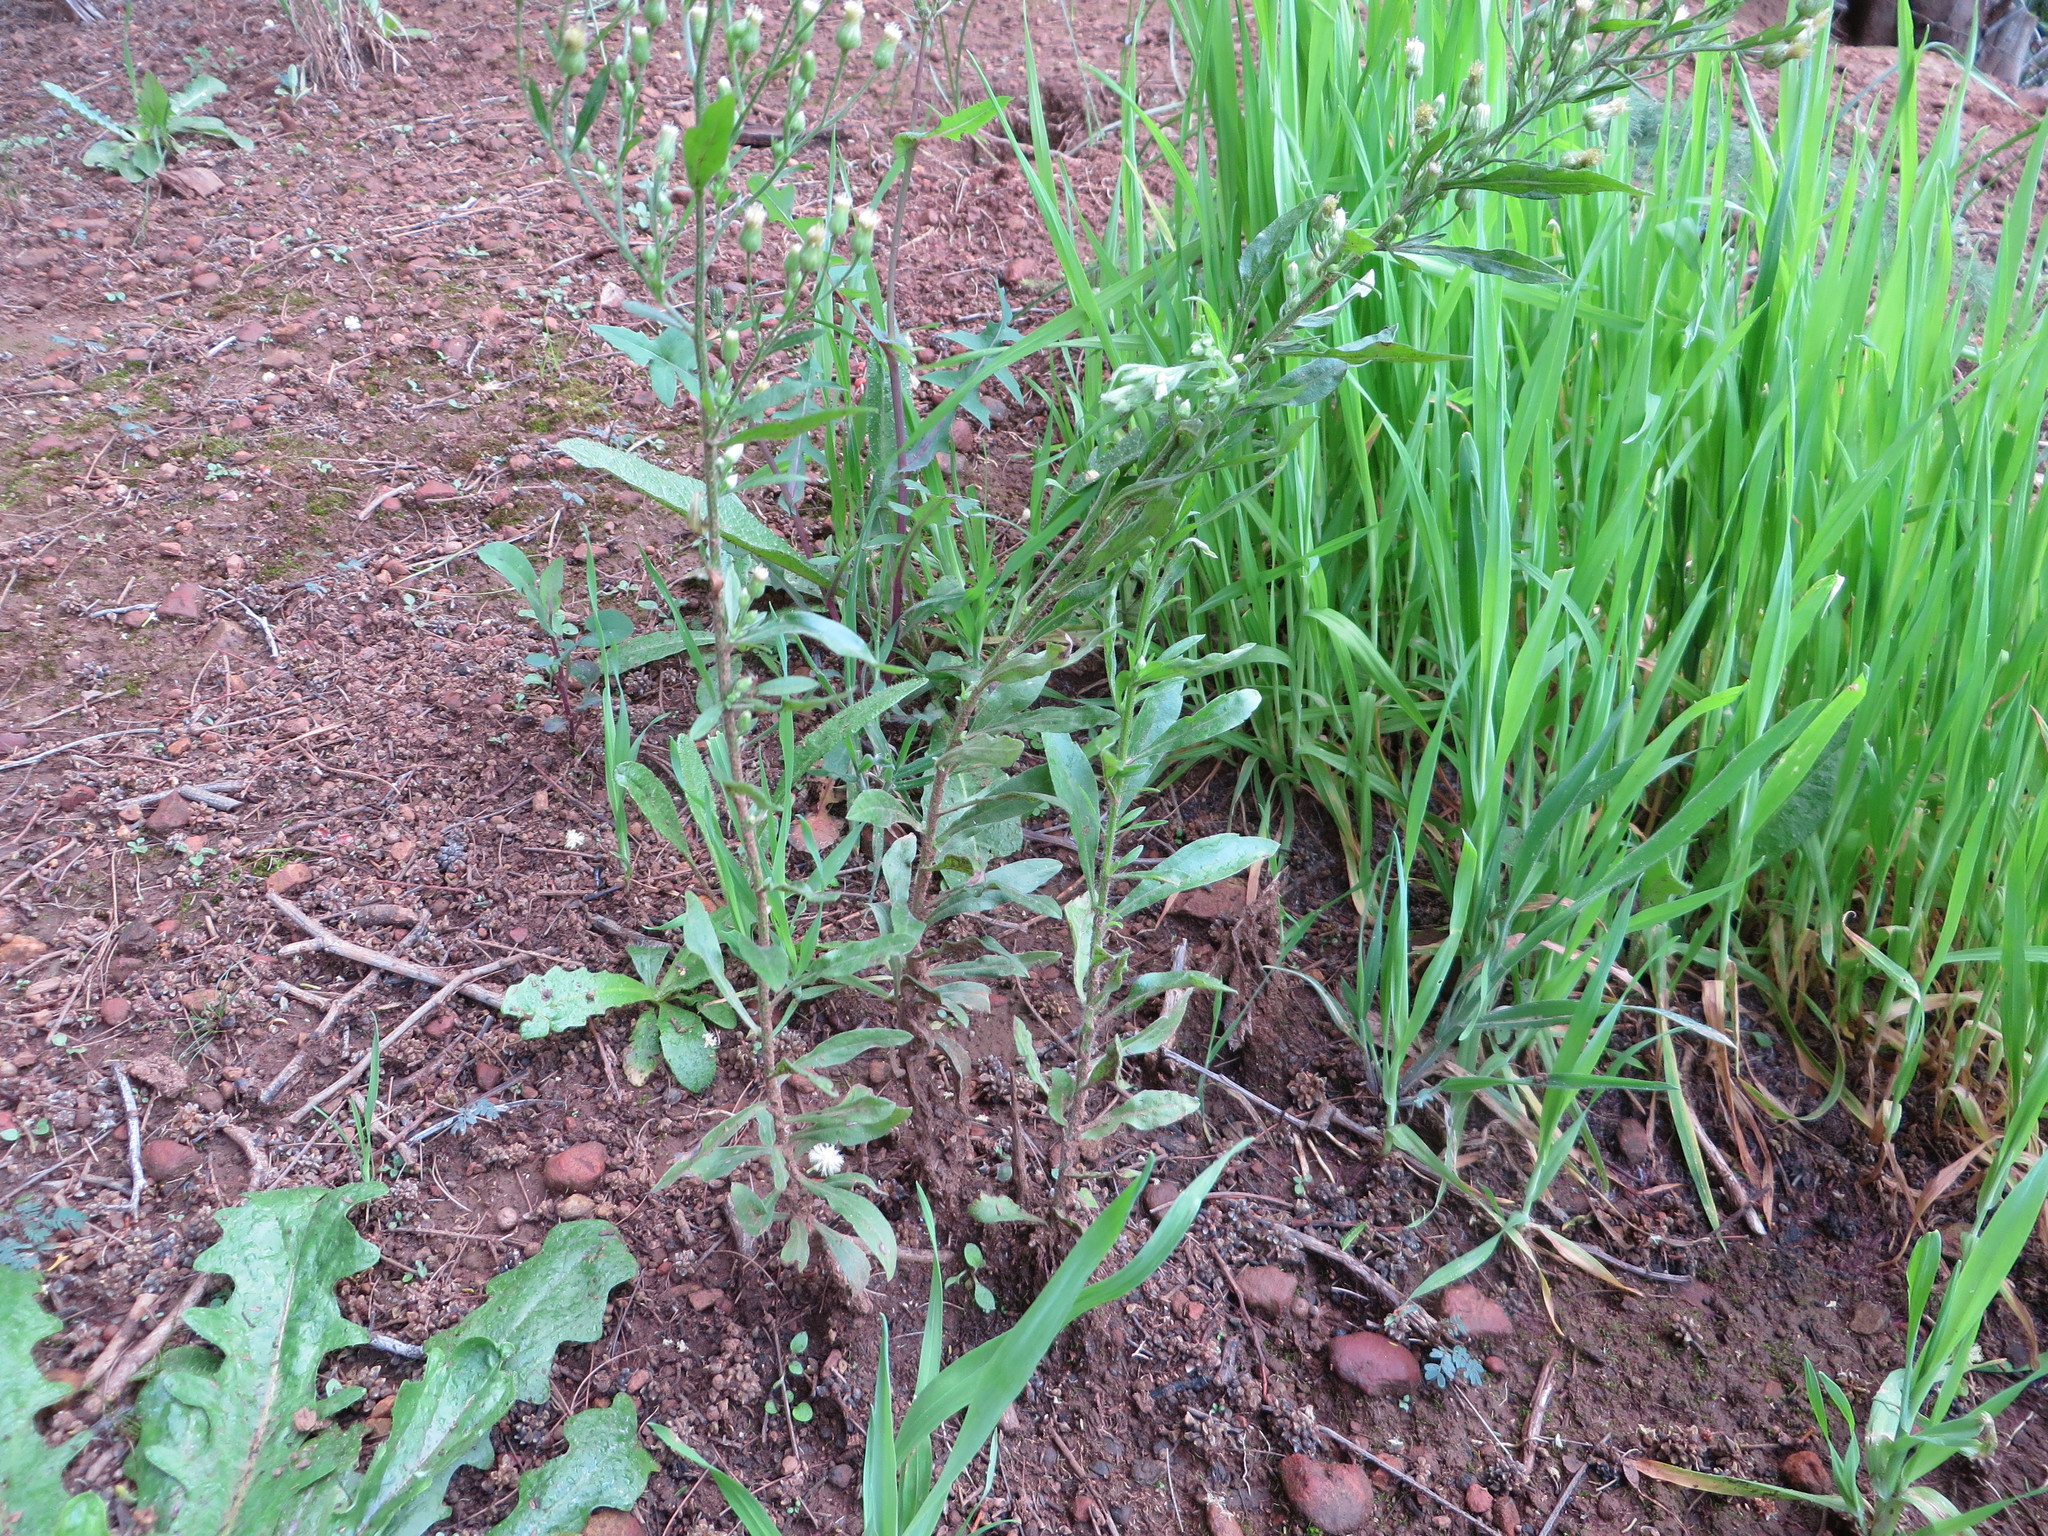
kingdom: Plantae
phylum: Tracheophyta
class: Magnoliopsida
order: Asterales
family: Asteraceae
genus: Erigeron
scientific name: Erigeron sumatrensis
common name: Daisy
